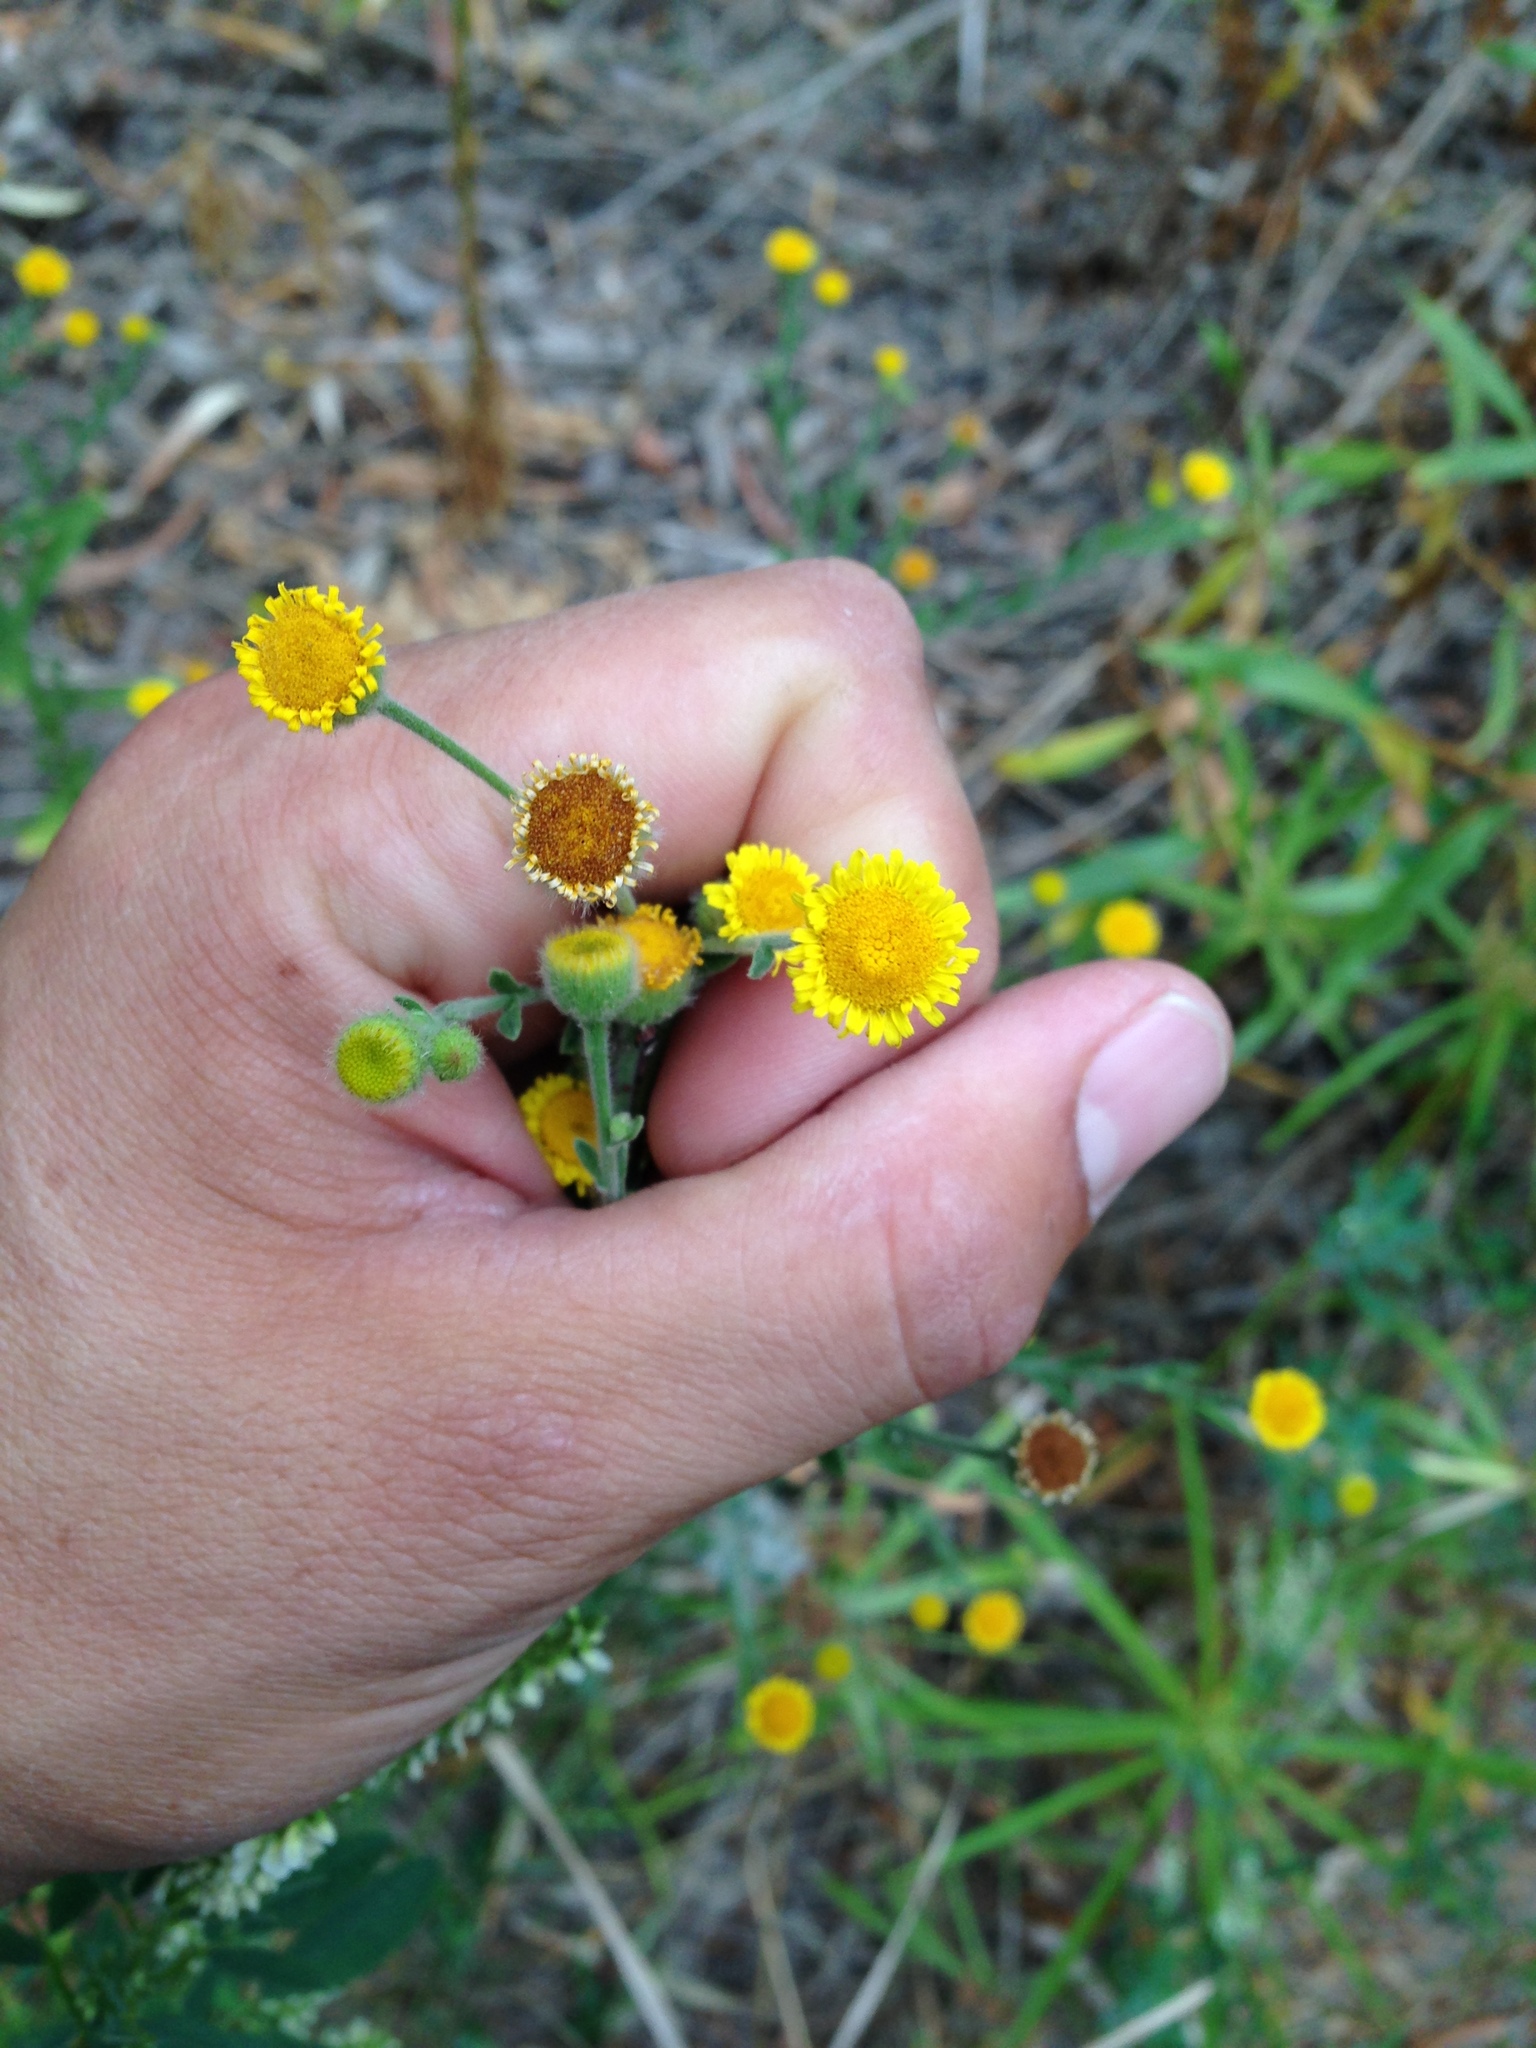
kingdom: Plantae
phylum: Tracheophyta
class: Magnoliopsida
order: Asterales
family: Asteraceae
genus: Pulicaria
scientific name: Pulicaria paludosa
